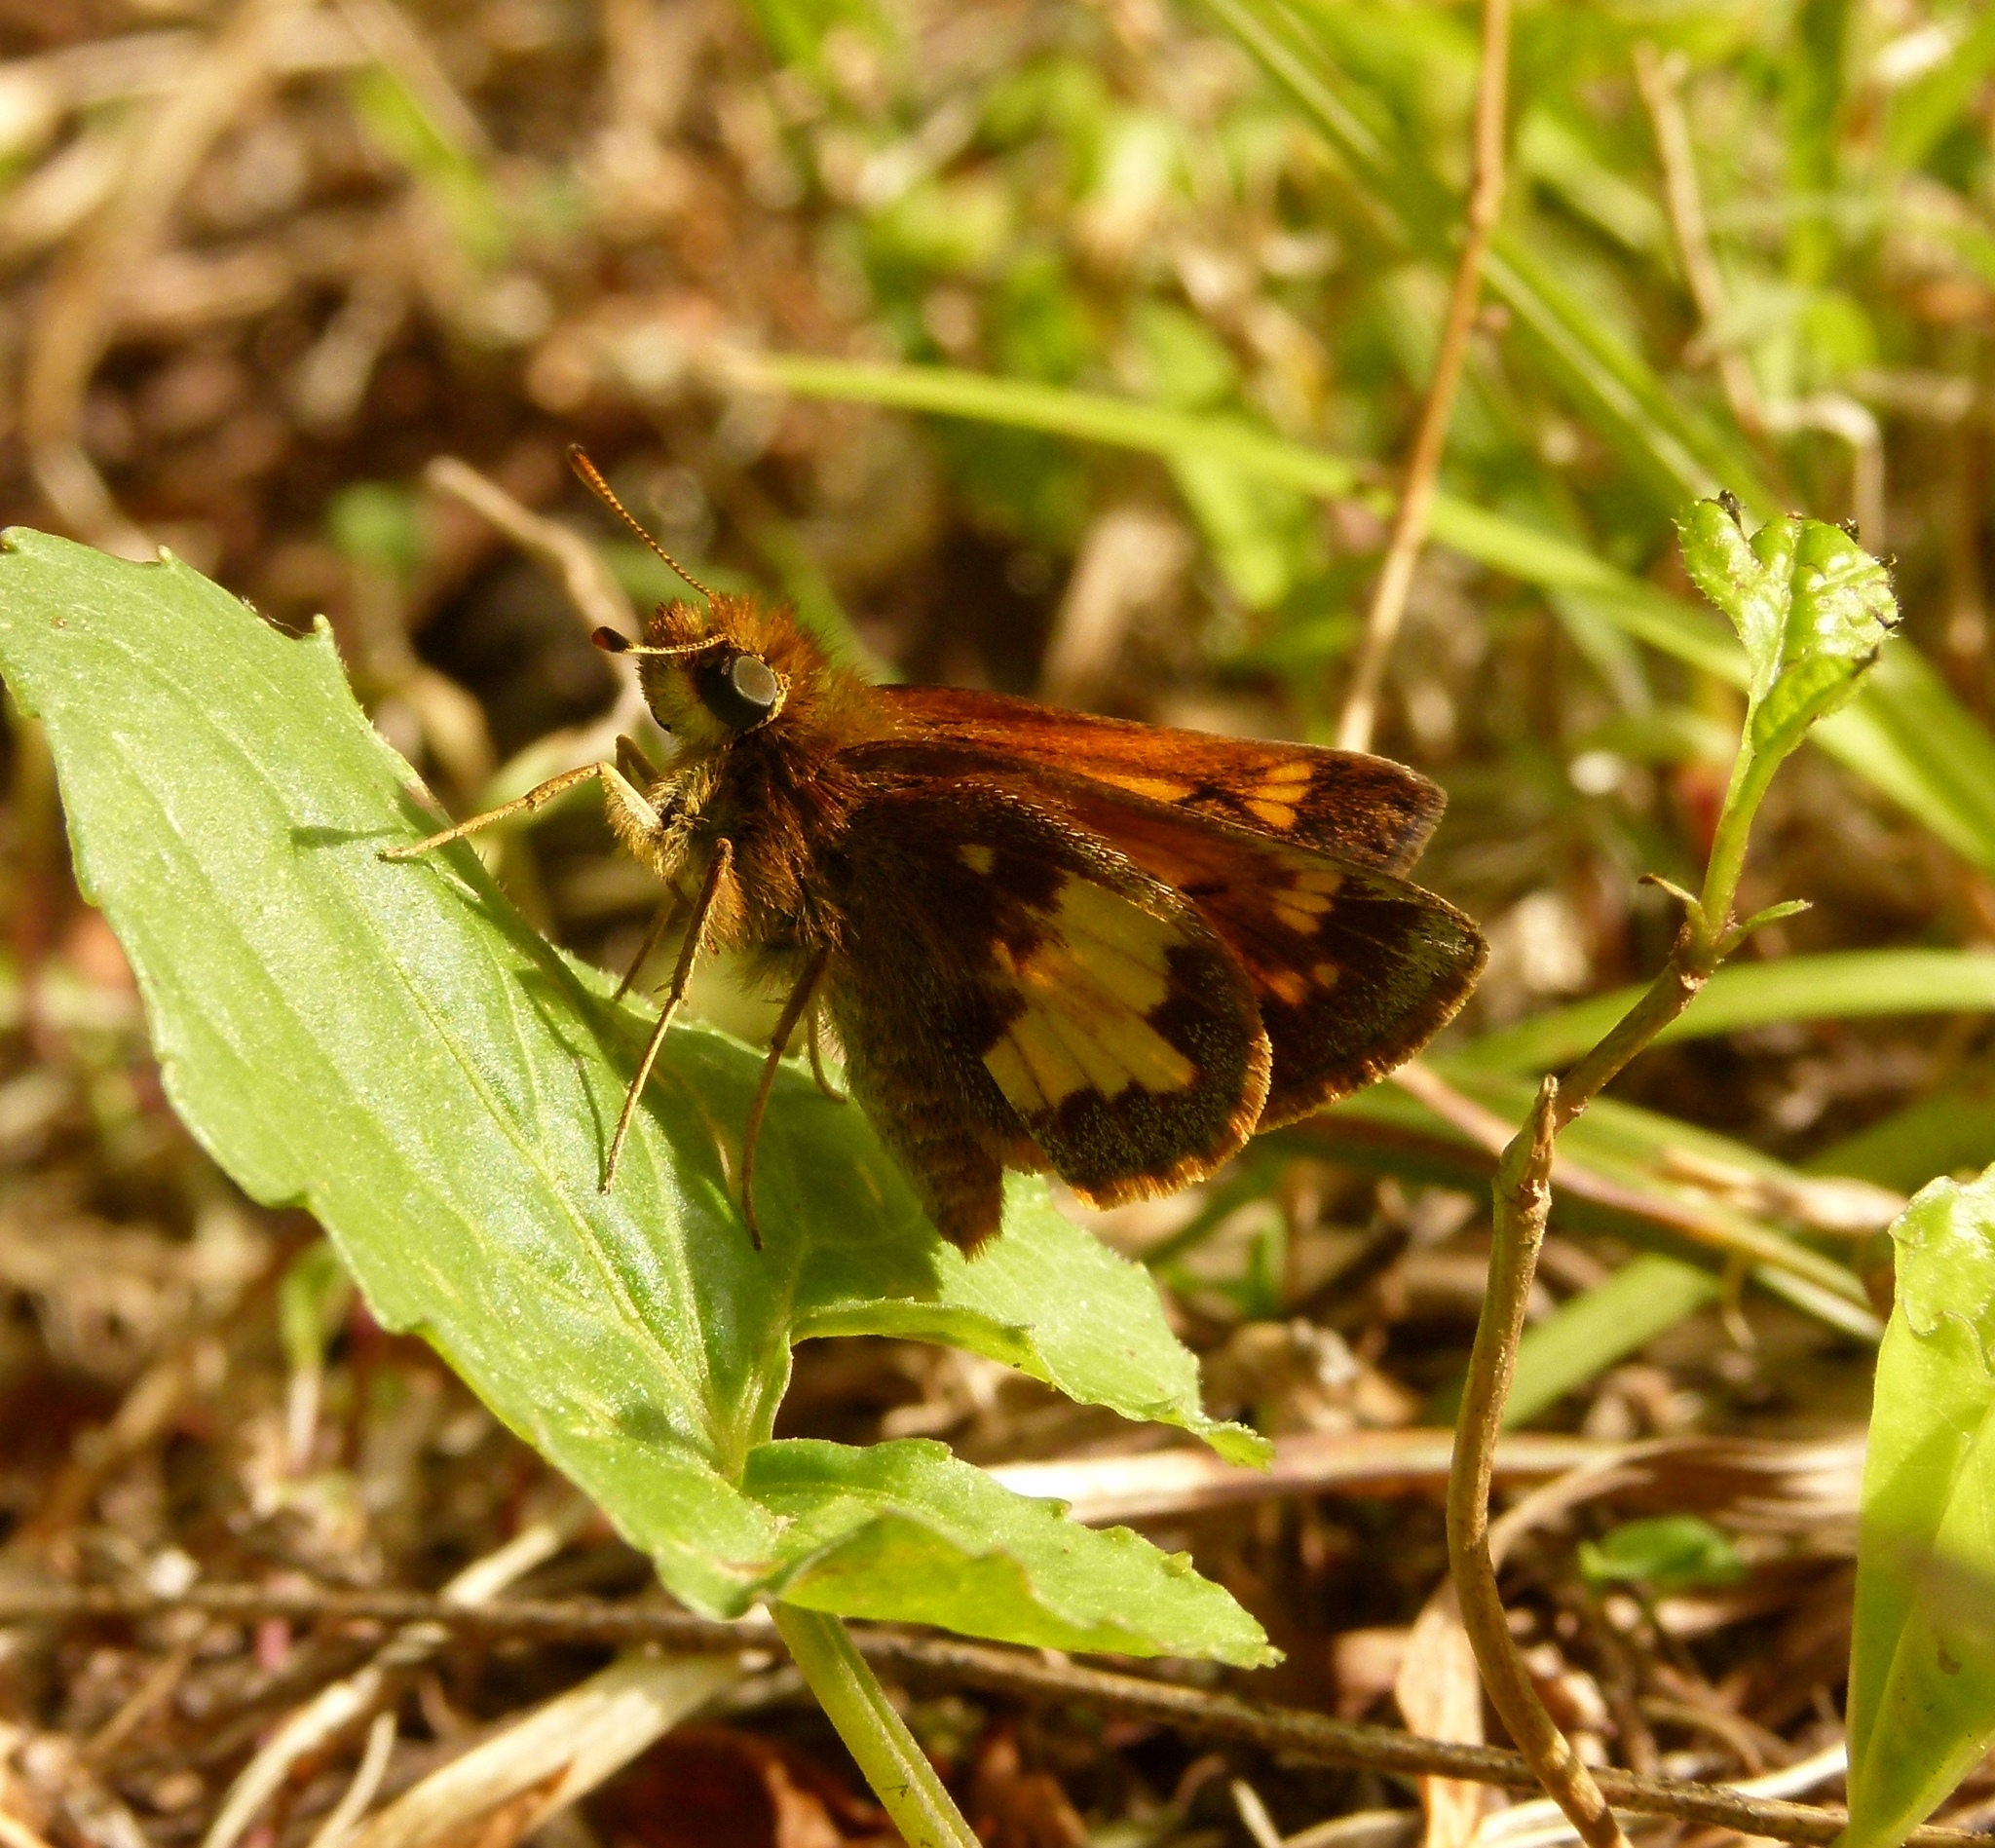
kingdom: Animalia
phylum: Arthropoda
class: Insecta
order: Lepidoptera
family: Hesperiidae
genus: Lon
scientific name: Lon hobomok
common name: Hobomok skipper
